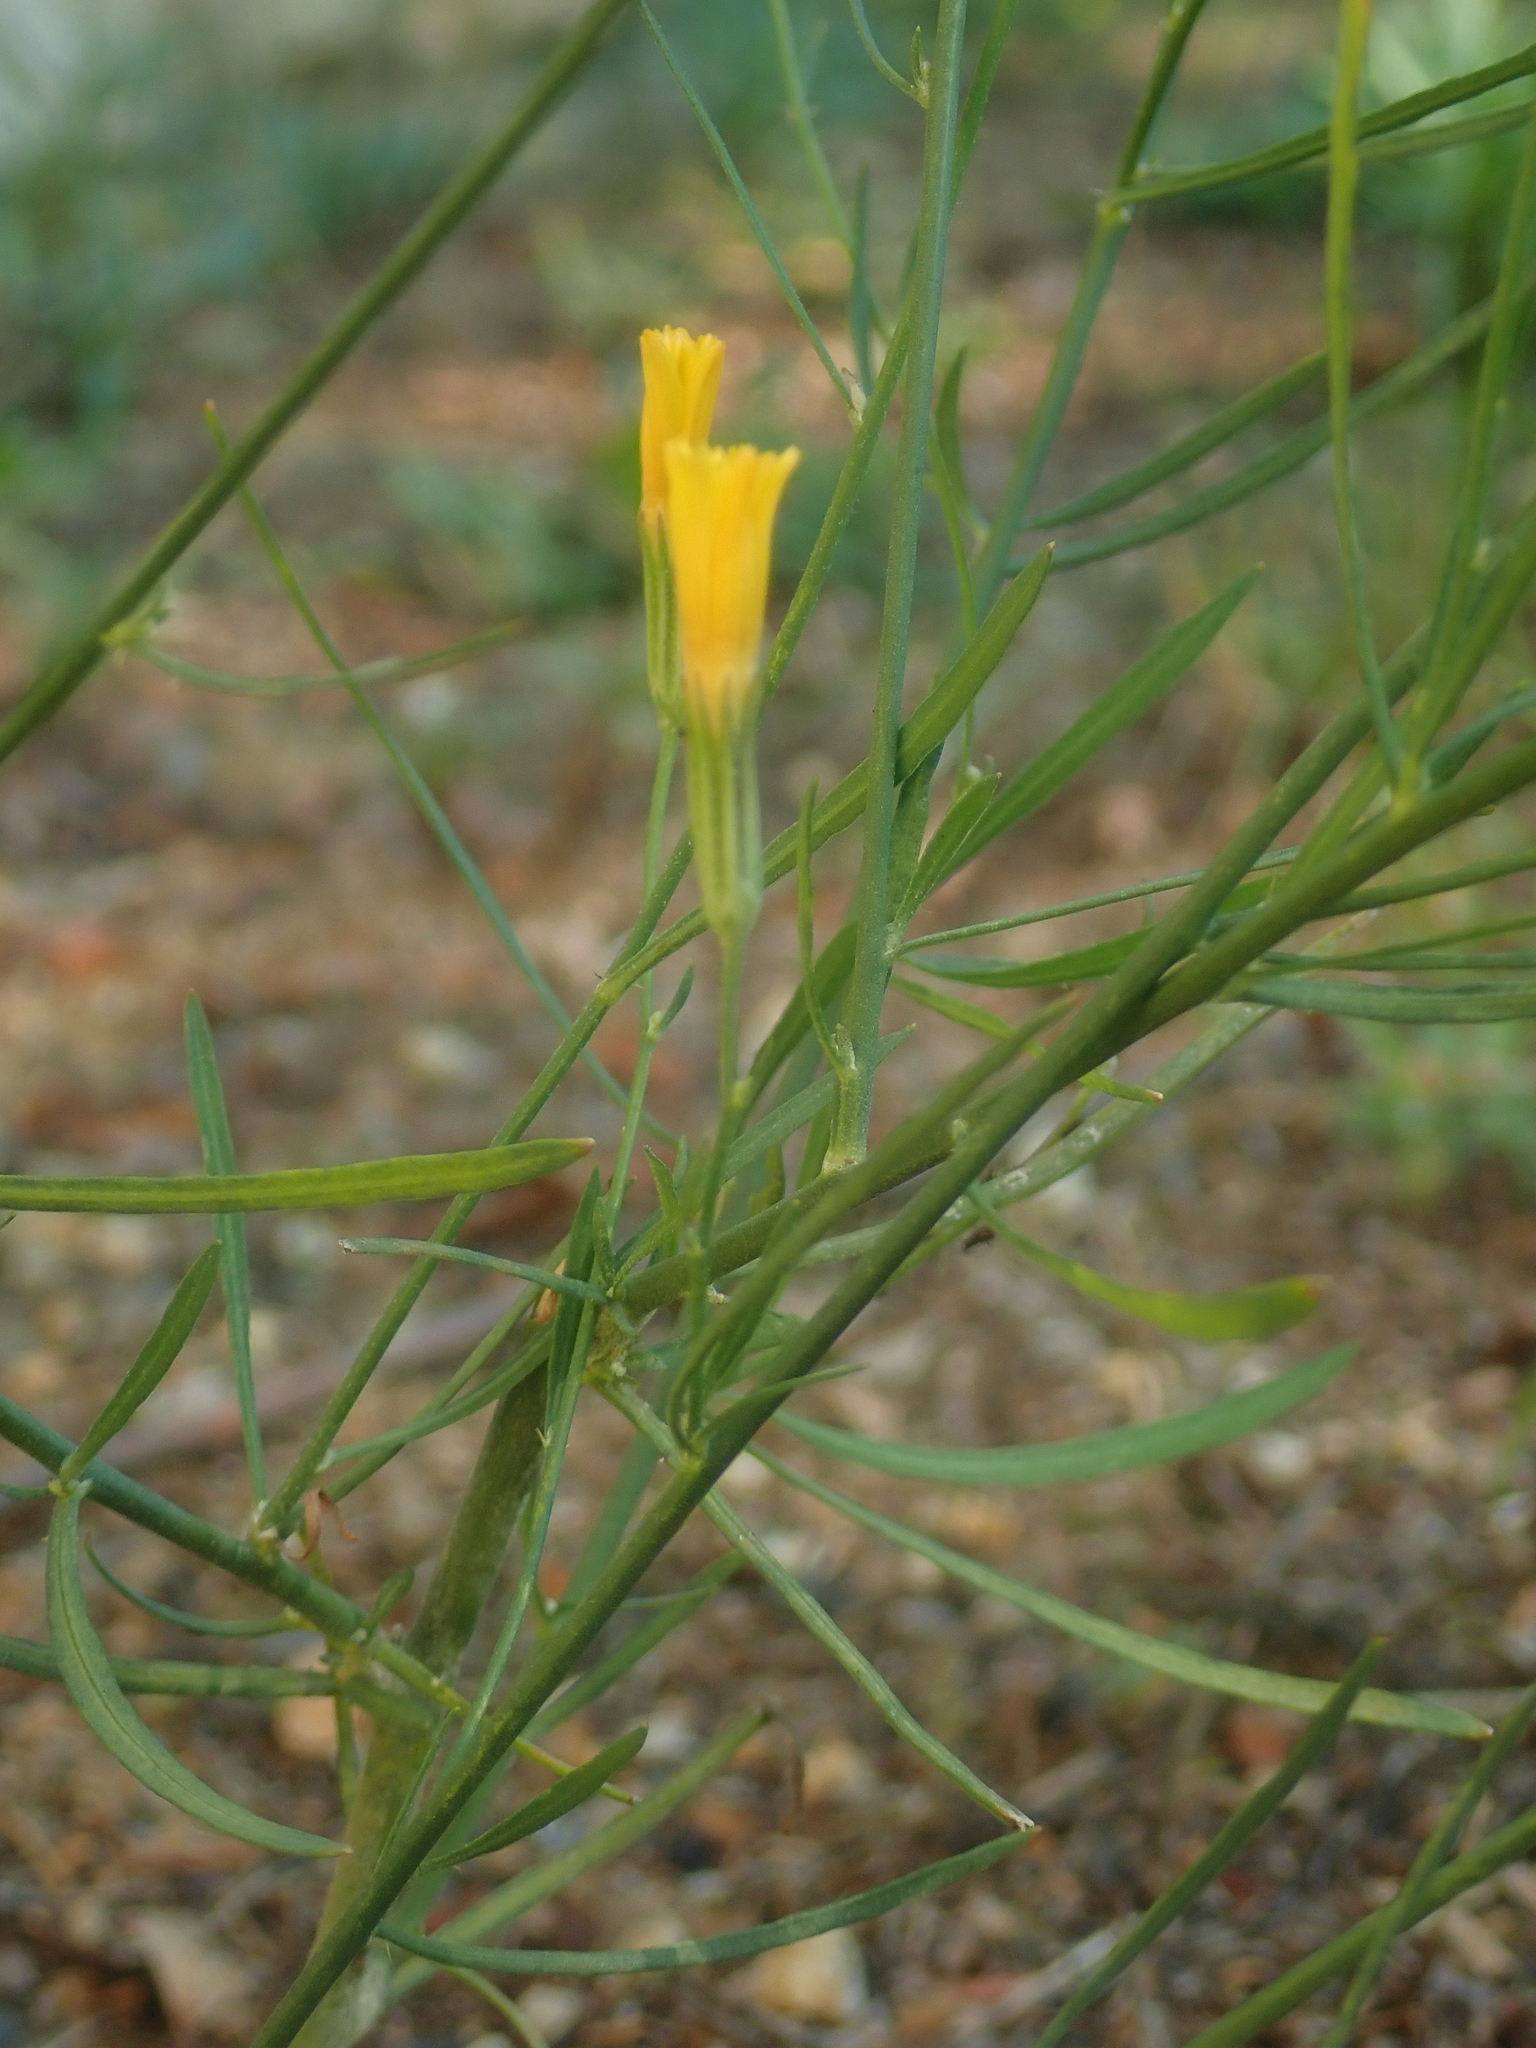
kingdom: Plantae
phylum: Tracheophyta
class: Magnoliopsida
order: Asterales
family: Asteraceae
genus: Chondrilla
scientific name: Chondrilla juncea
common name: Skeleton weed
